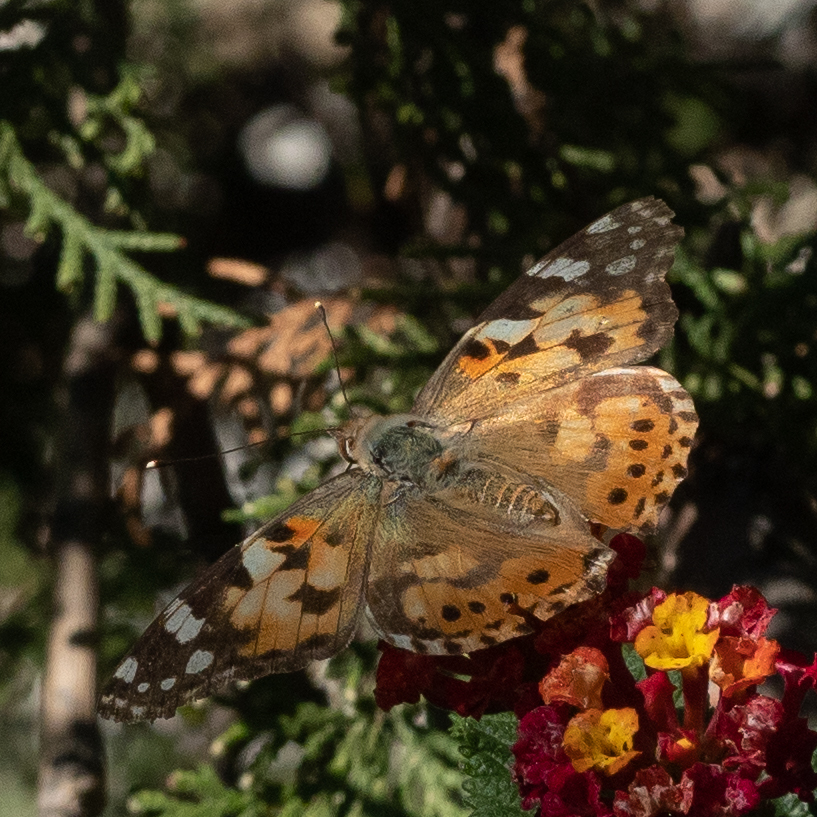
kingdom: Animalia
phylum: Arthropoda
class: Insecta
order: Lepidoptera
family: Nymphalidae
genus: Vanessa
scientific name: Vanessa cardui
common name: Painted lady
